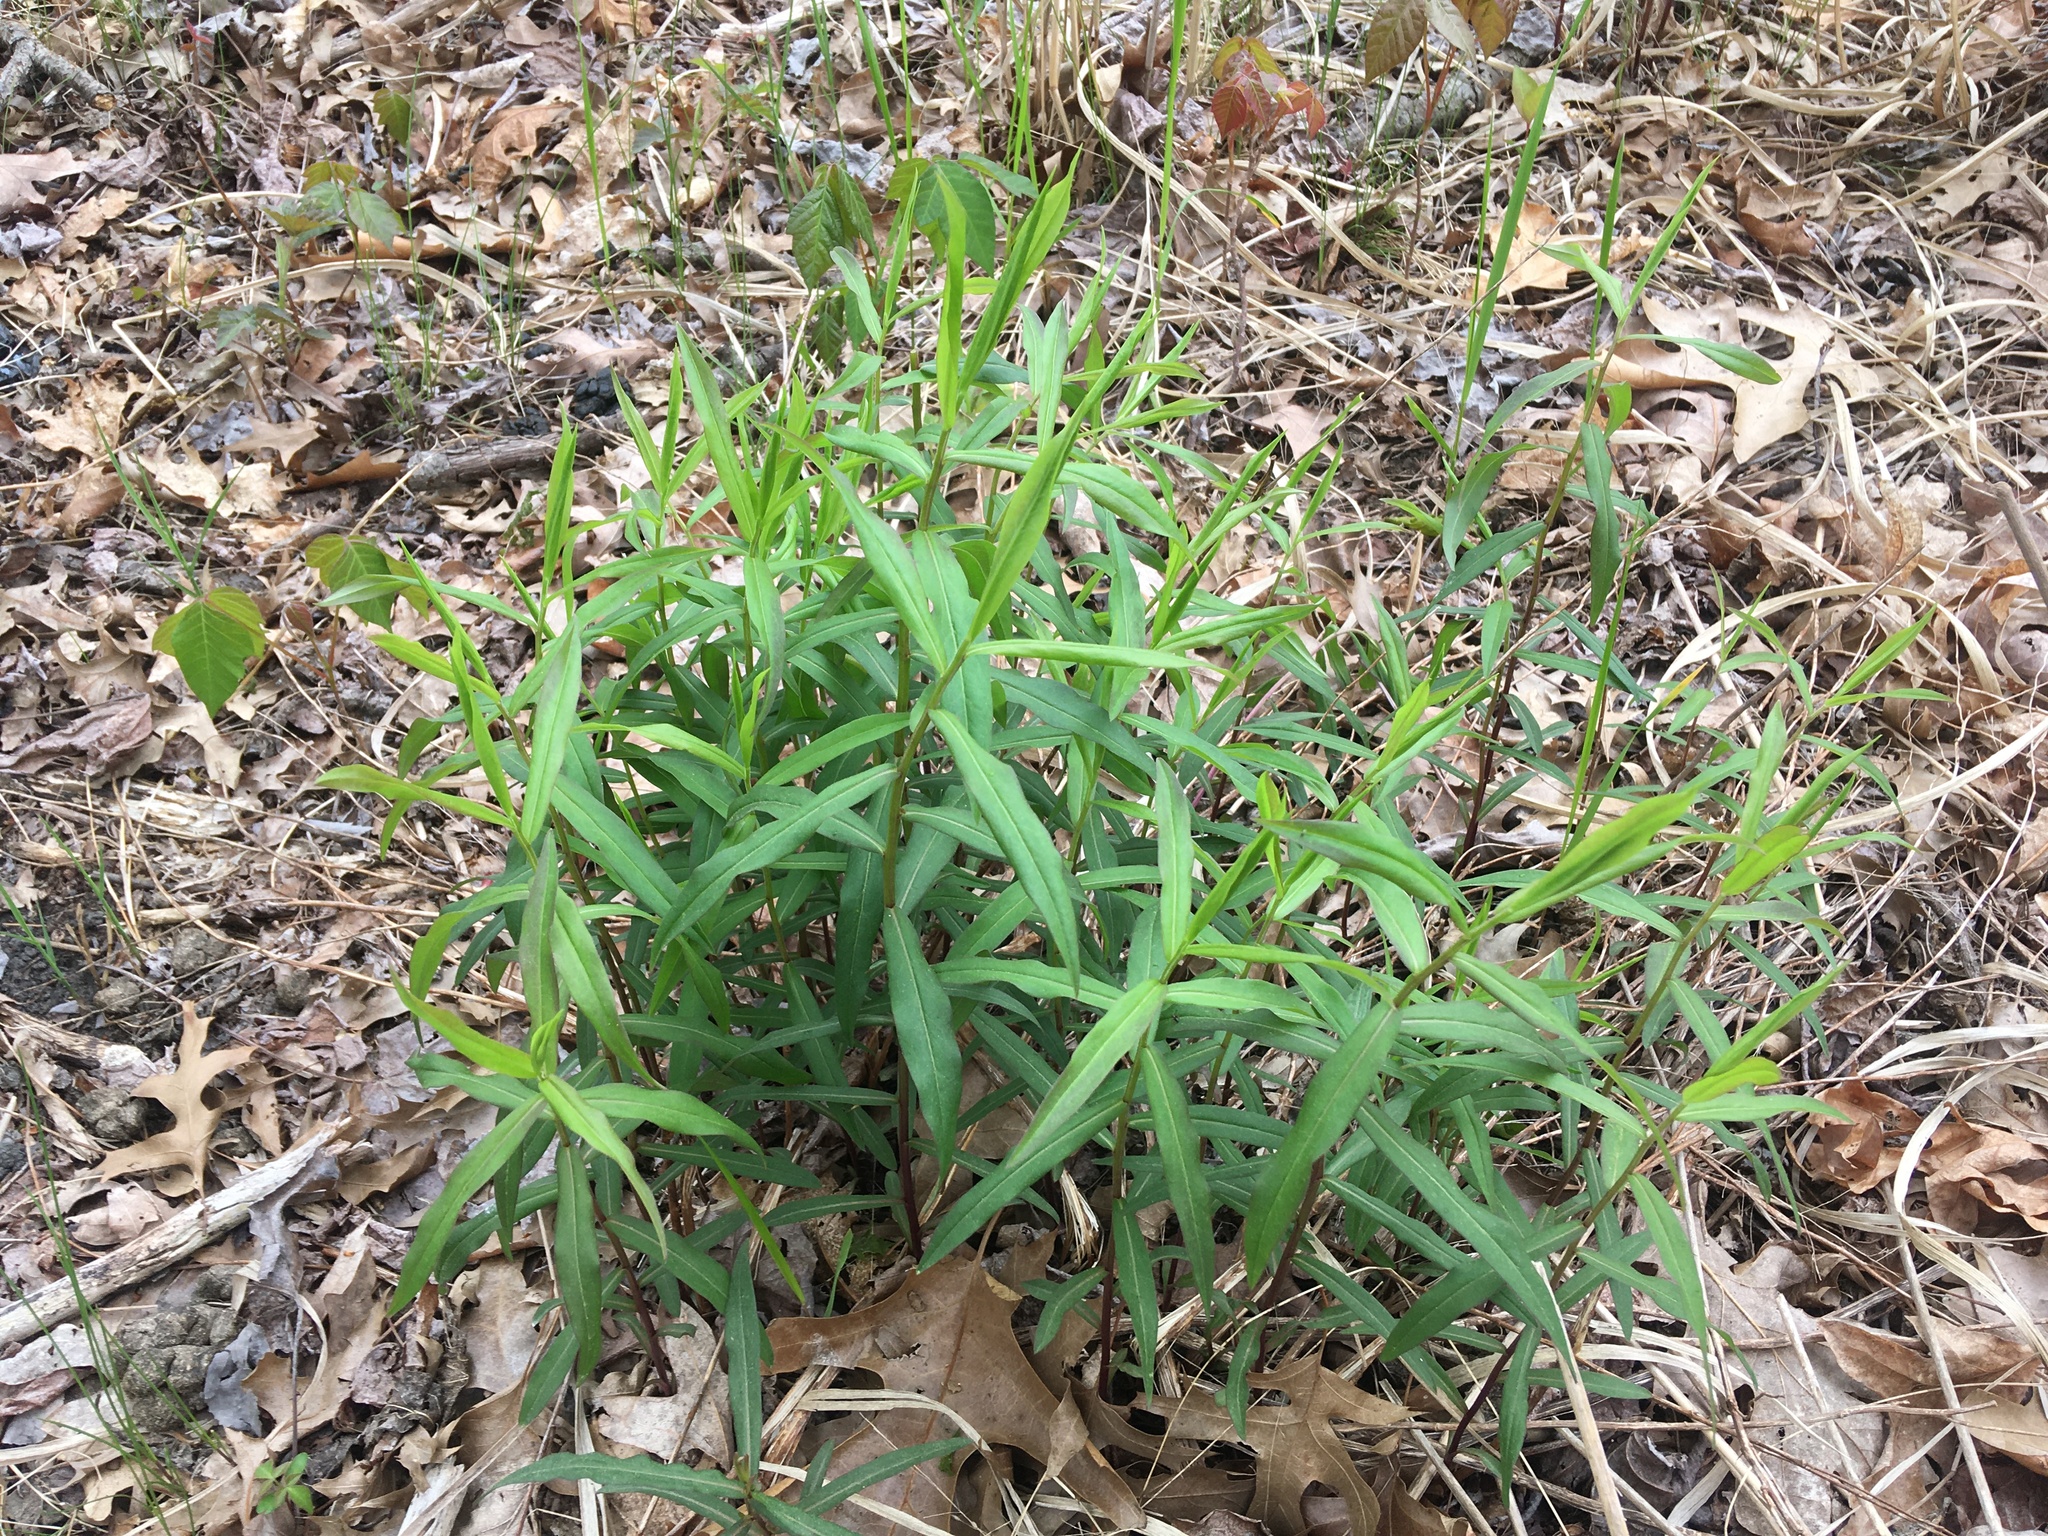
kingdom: Plantae
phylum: Tracheophyta
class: Magnoliopsida
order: Asterales
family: Asteraceae
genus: Solidago
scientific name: Solidago odora
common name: Anise-scented goldenrod
